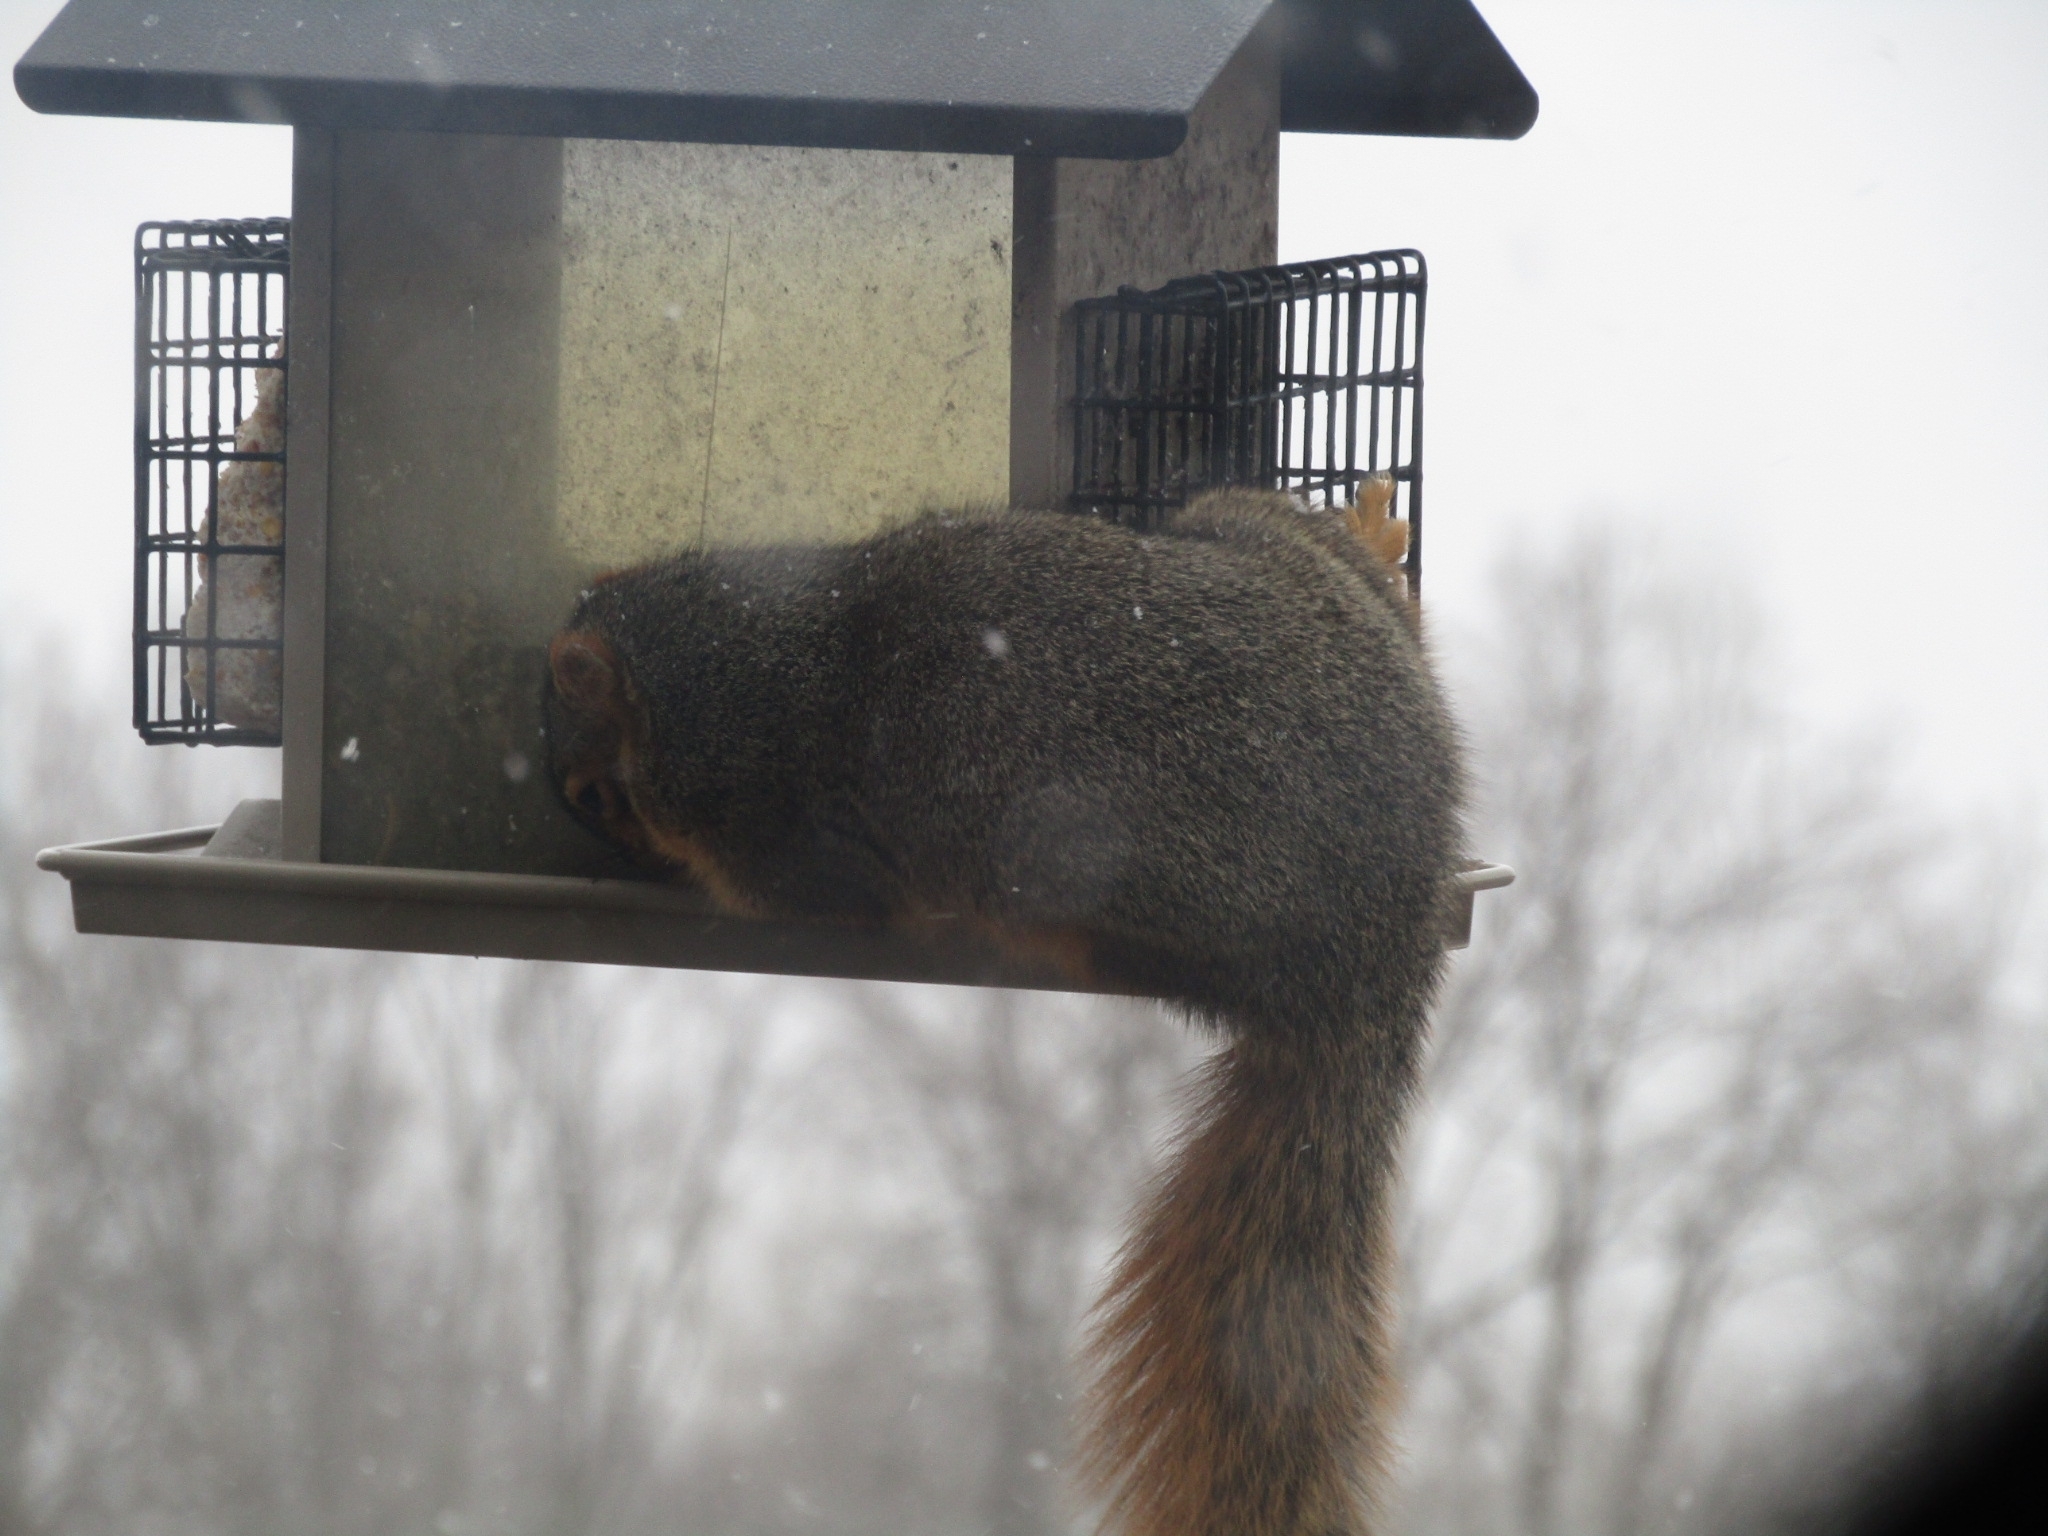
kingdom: Animalia
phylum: Chordata
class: Mammalia
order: Rodentia
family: Sciuridae
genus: Sciurus
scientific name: Sciurus niger
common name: Fox squirrel
